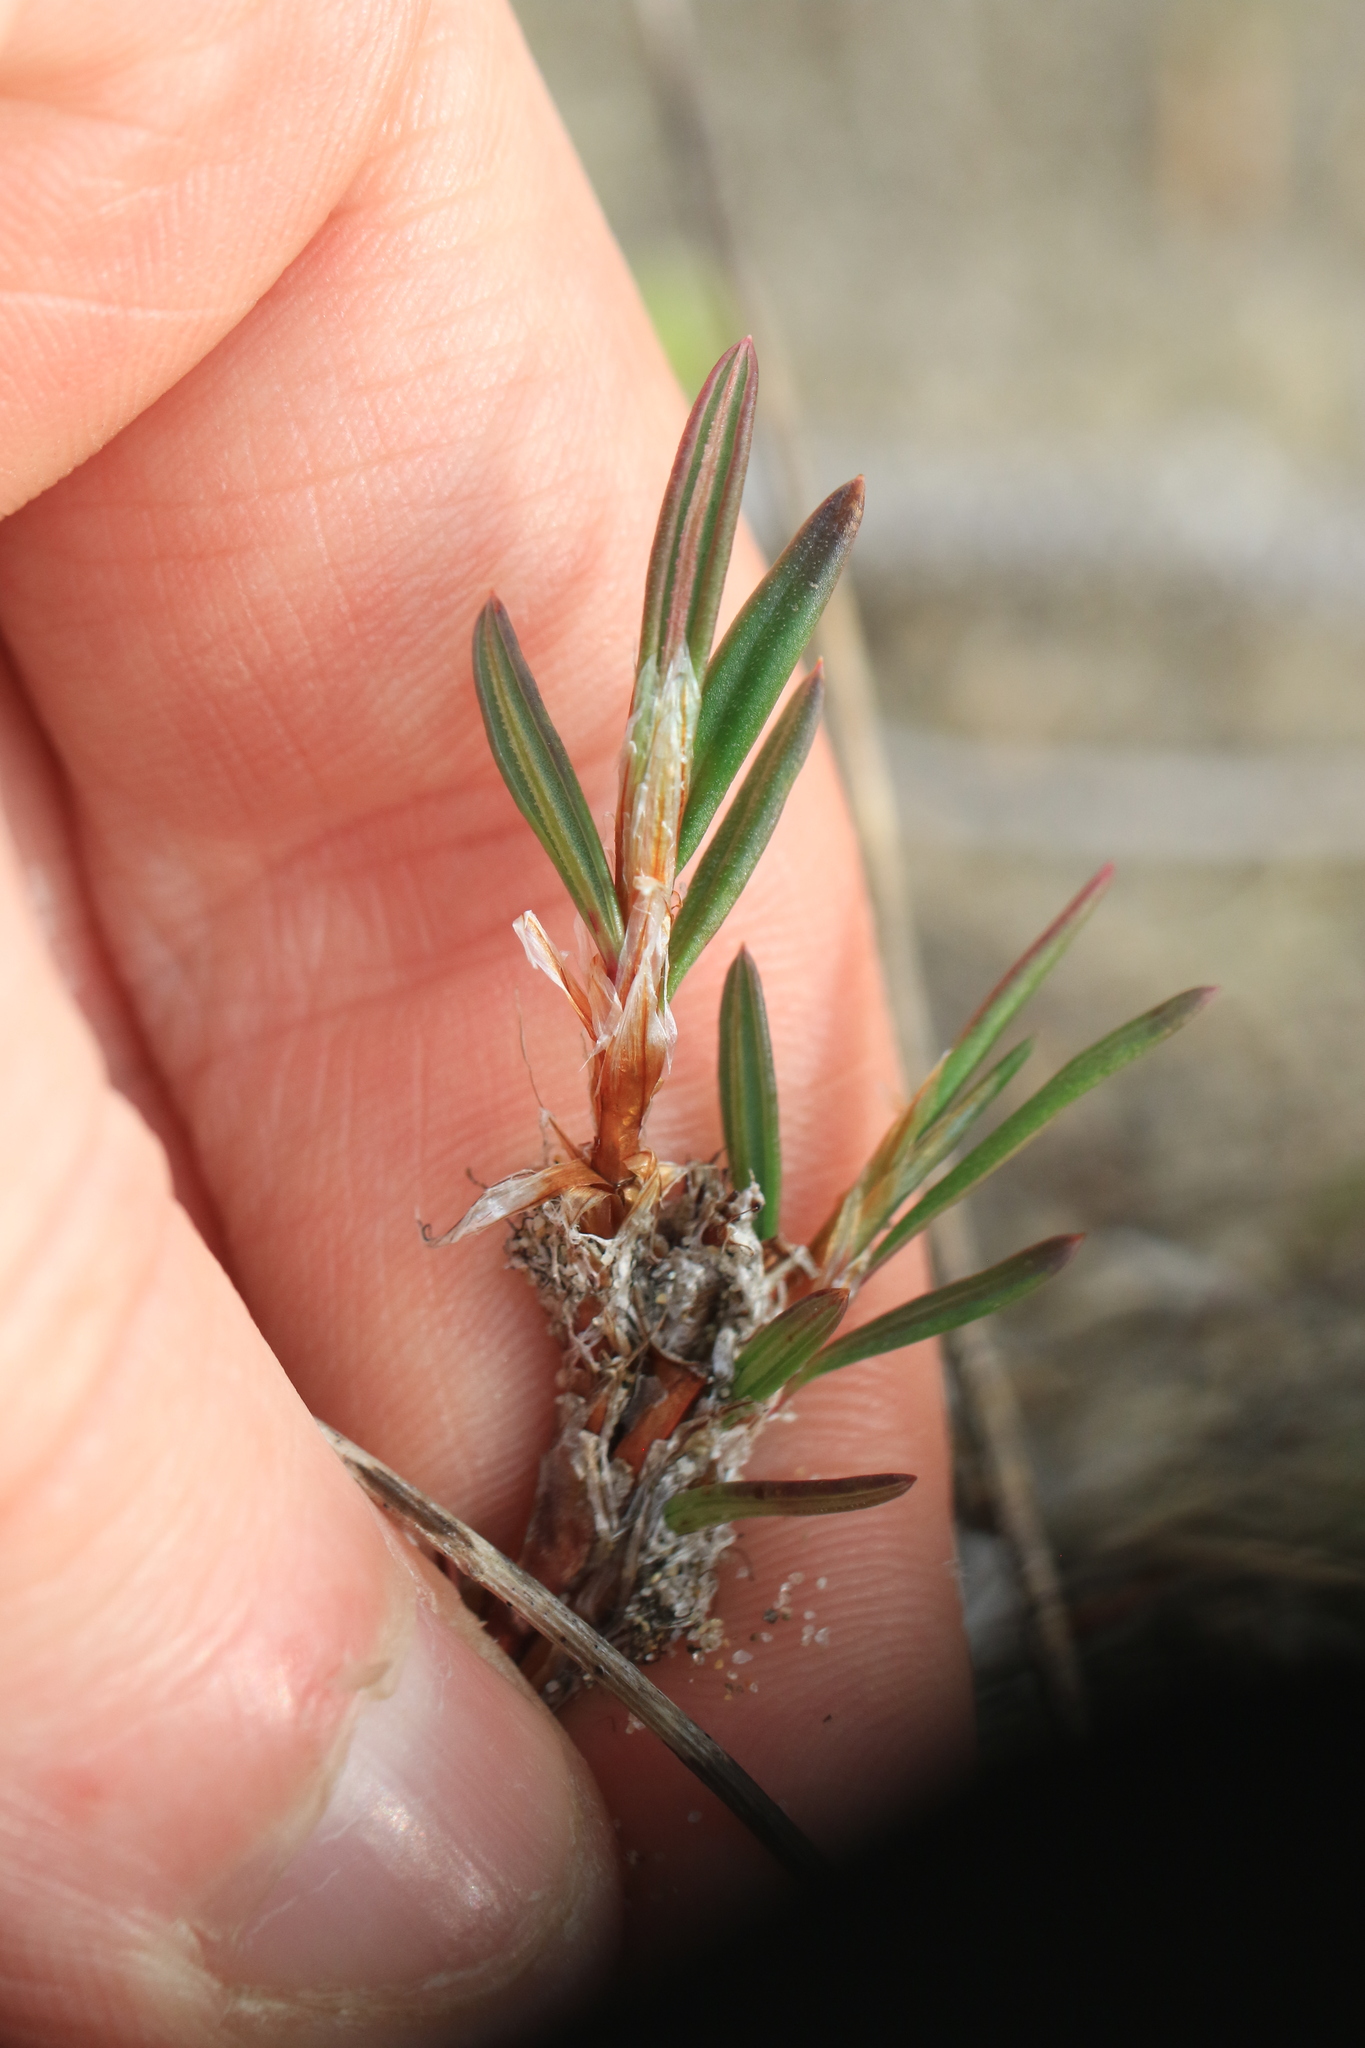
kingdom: Plantae
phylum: Tracheophyta
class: Magnoliopsida
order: Caryophyllales
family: Polygonaceae
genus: Polygonum
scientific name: Polygonum paronychia
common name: Dune knotweed
